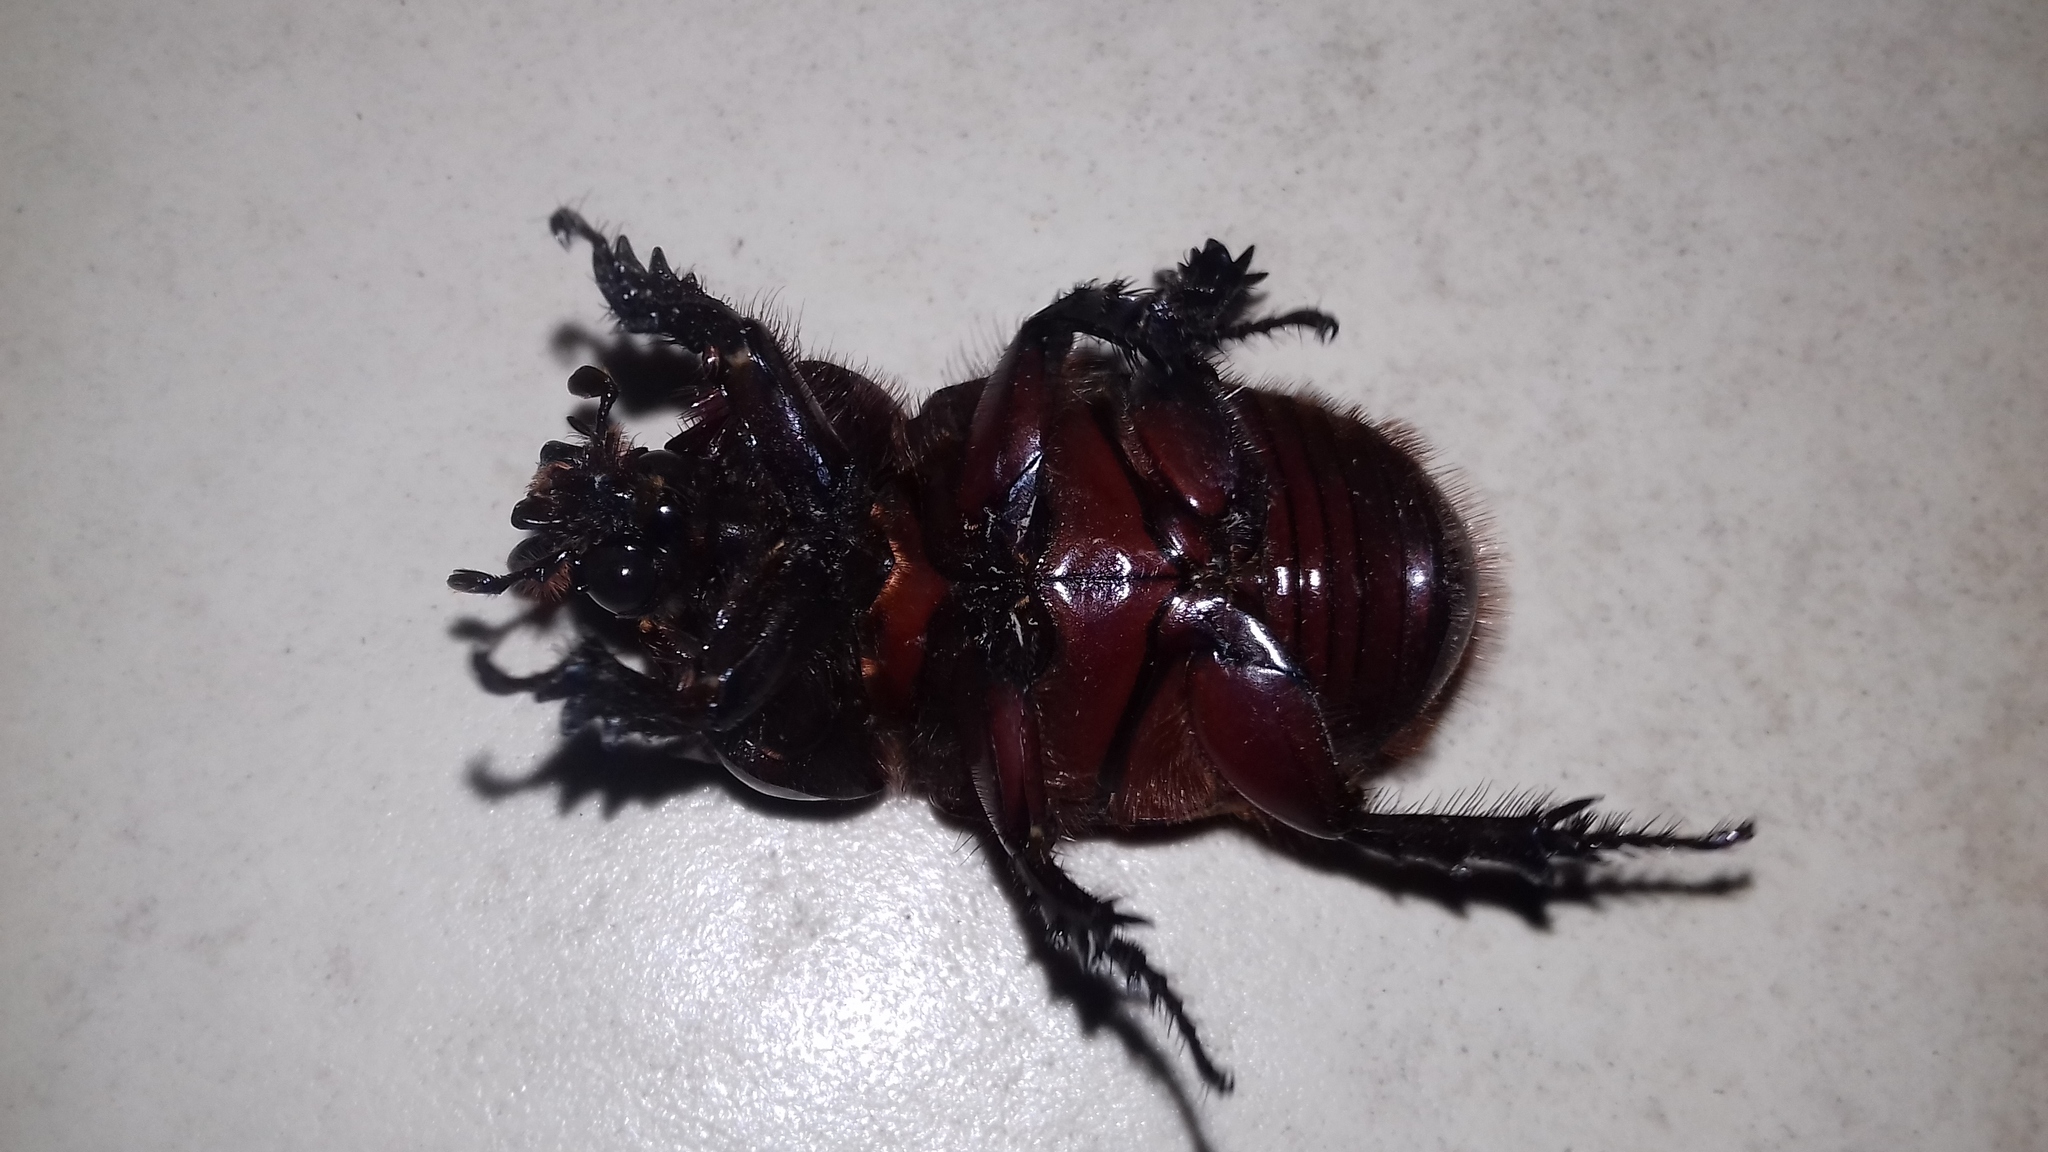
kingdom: Animalia
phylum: Arthropoda
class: Insecta
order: Coleoptera
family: Scarabaeidae
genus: Strategus
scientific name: Strategus aloeus
